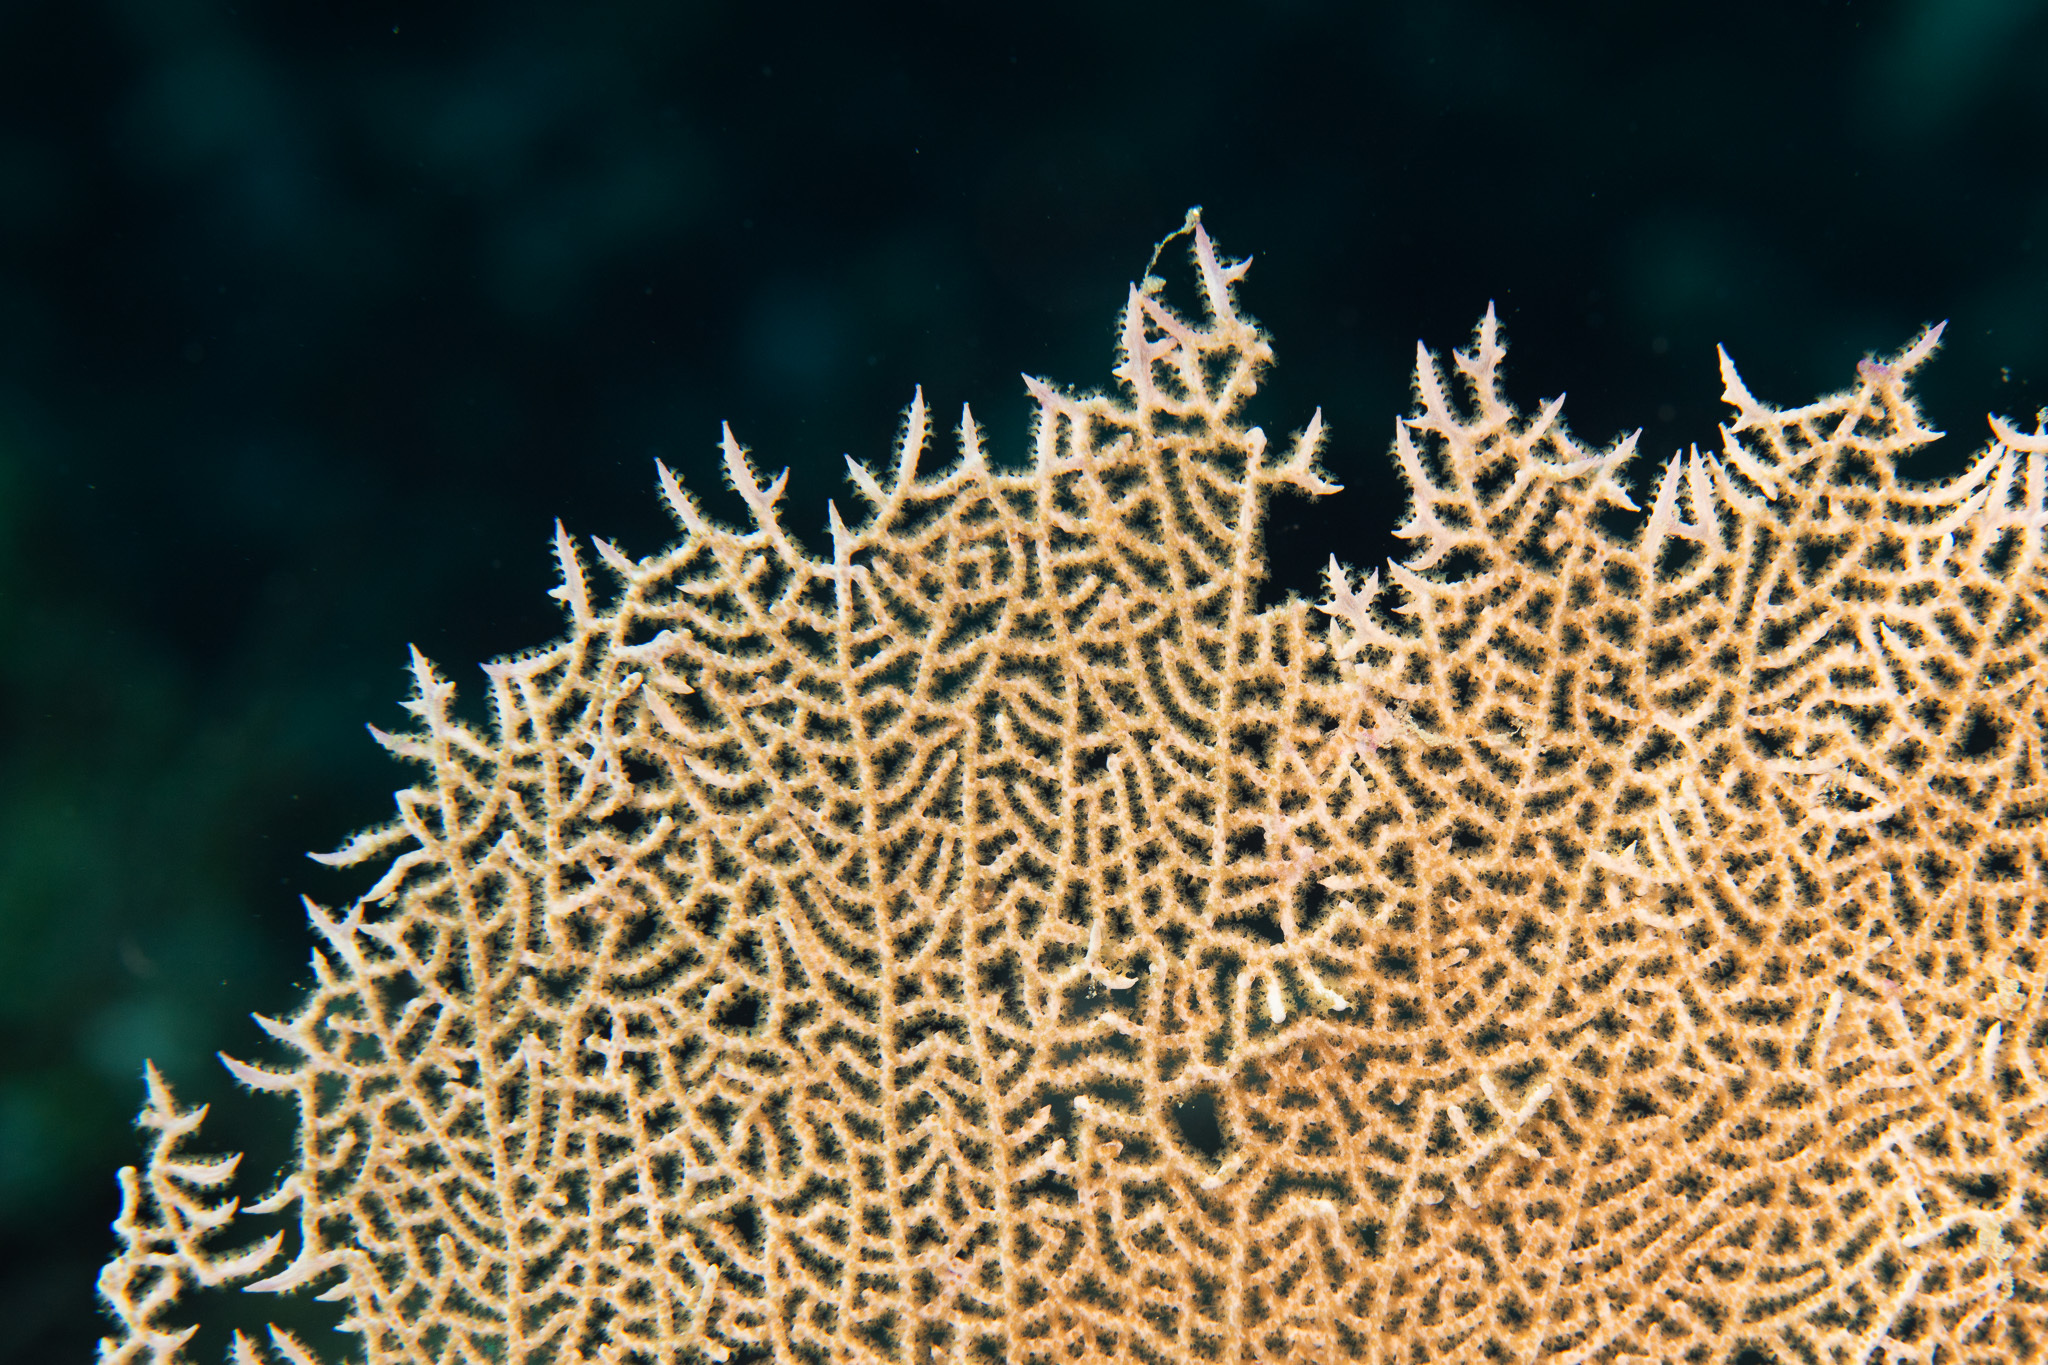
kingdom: Animalia
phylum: Cnidaria
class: Anthozoa
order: Malacalcyonacea
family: Gorgoniidae
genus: Gorgonia
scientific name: Gorgonia ventalina
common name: Common sea fan
